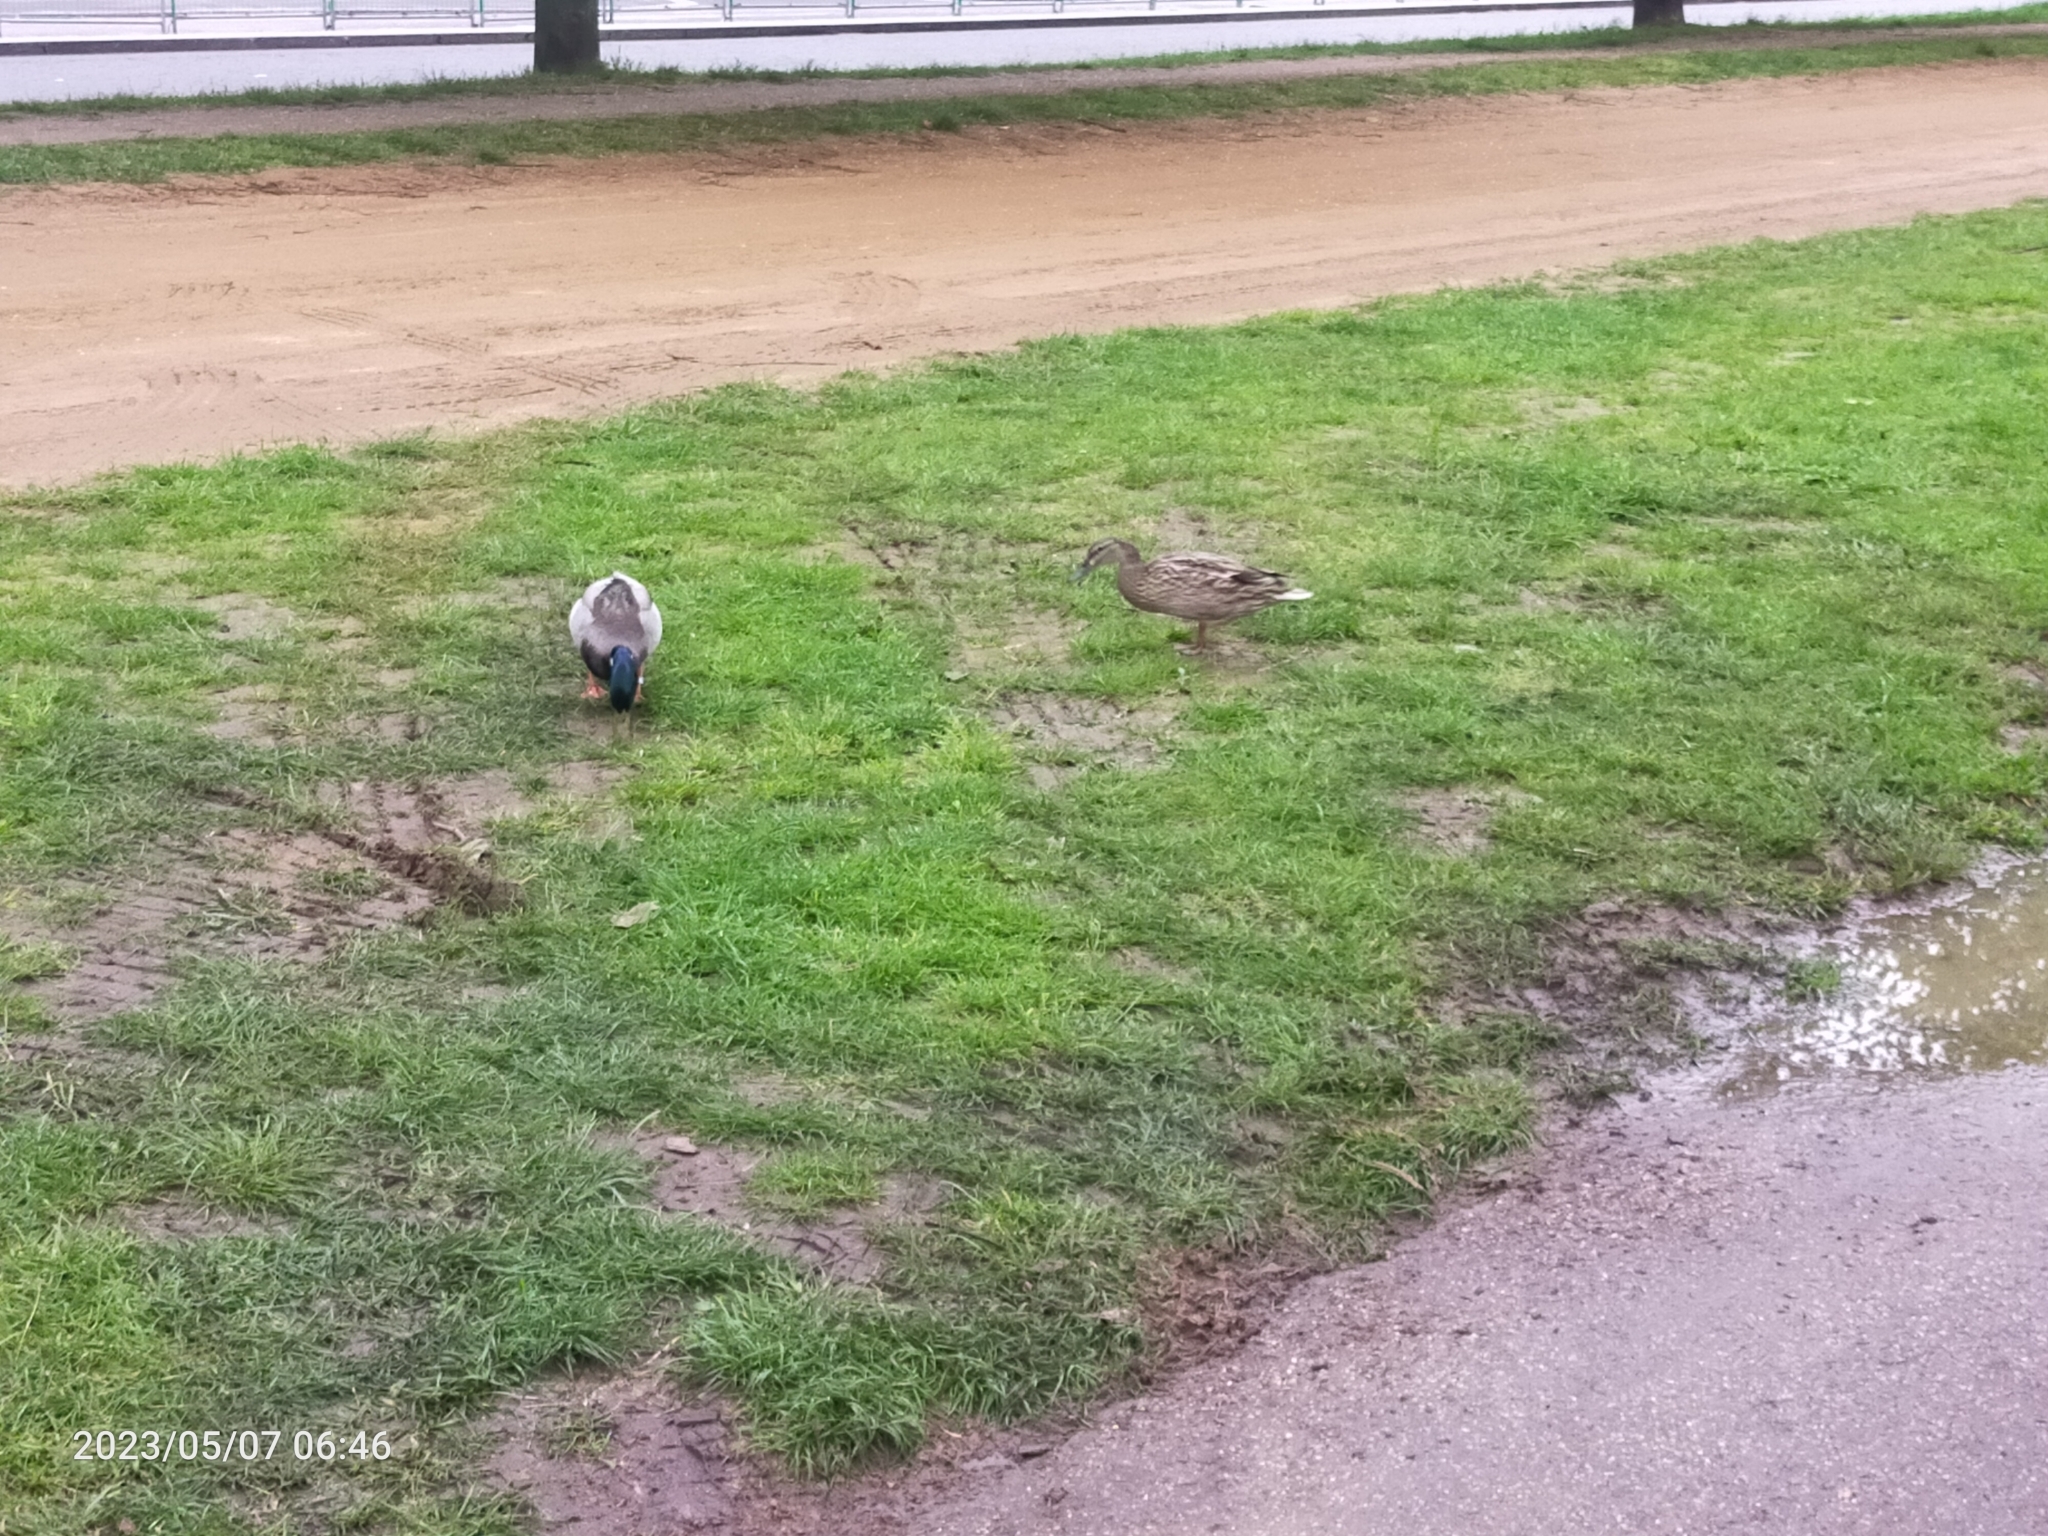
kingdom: Animalia
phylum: Chordata
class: Aves
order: Anseriformes
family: Anatidae
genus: Anas
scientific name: Anas platyrhynchos
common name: Mallard
